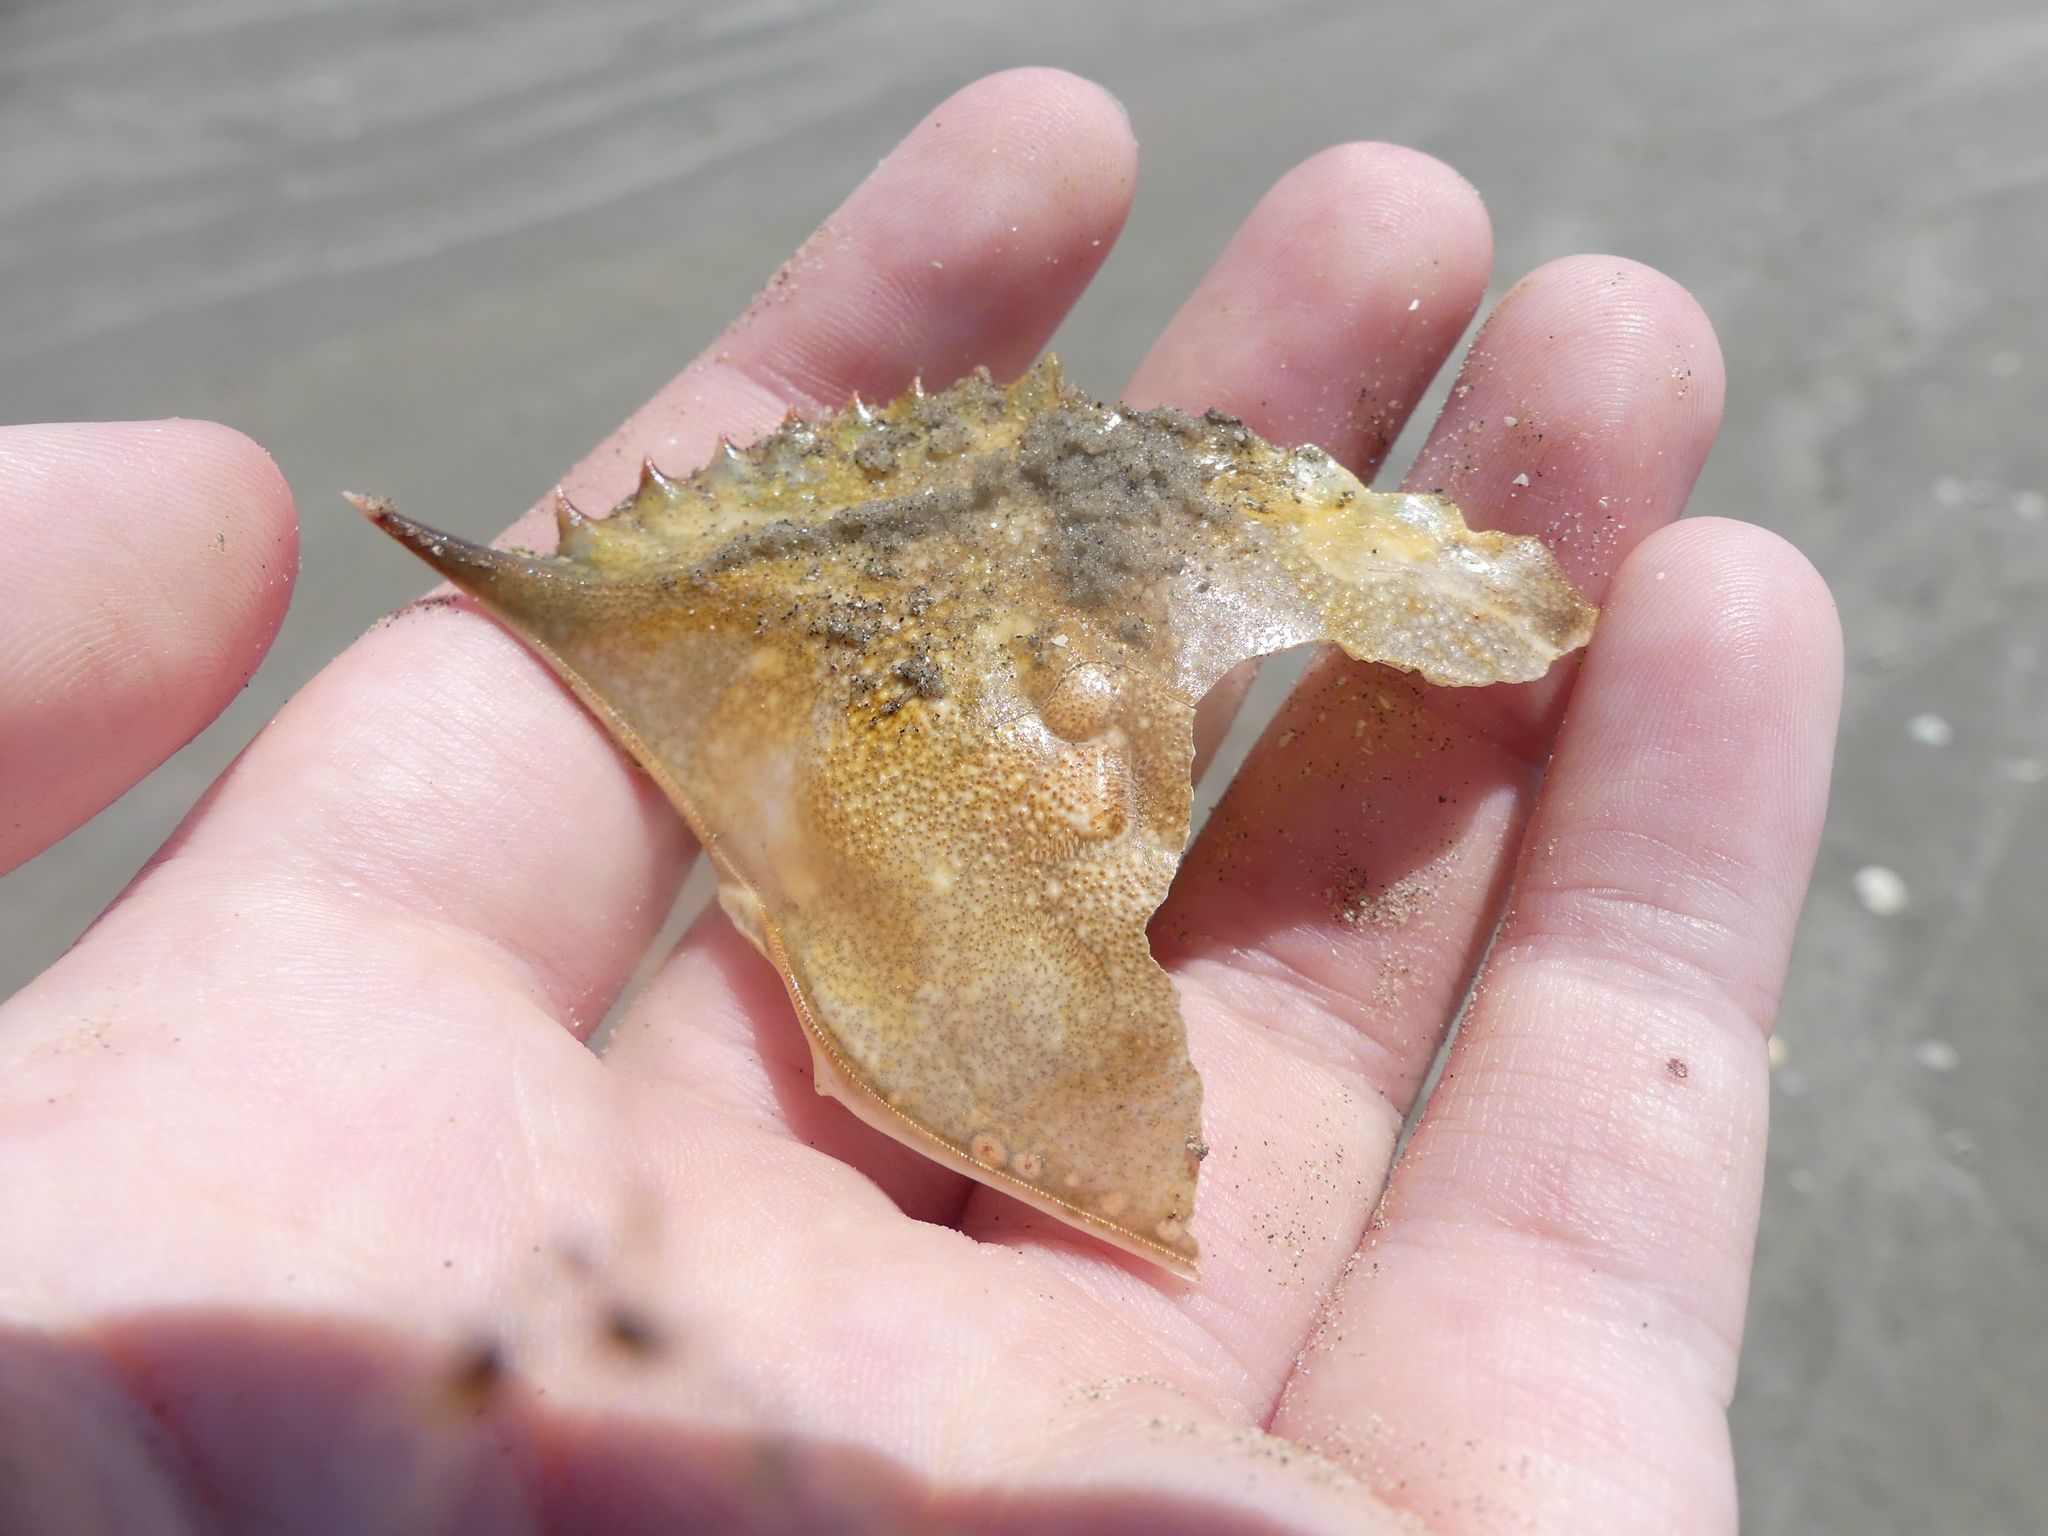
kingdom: Animalia
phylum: Arthropoda
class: Malacostraca
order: Decapoda
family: Portunidae
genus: Callinectes
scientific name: Callinectes sapidus
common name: Blue crab
